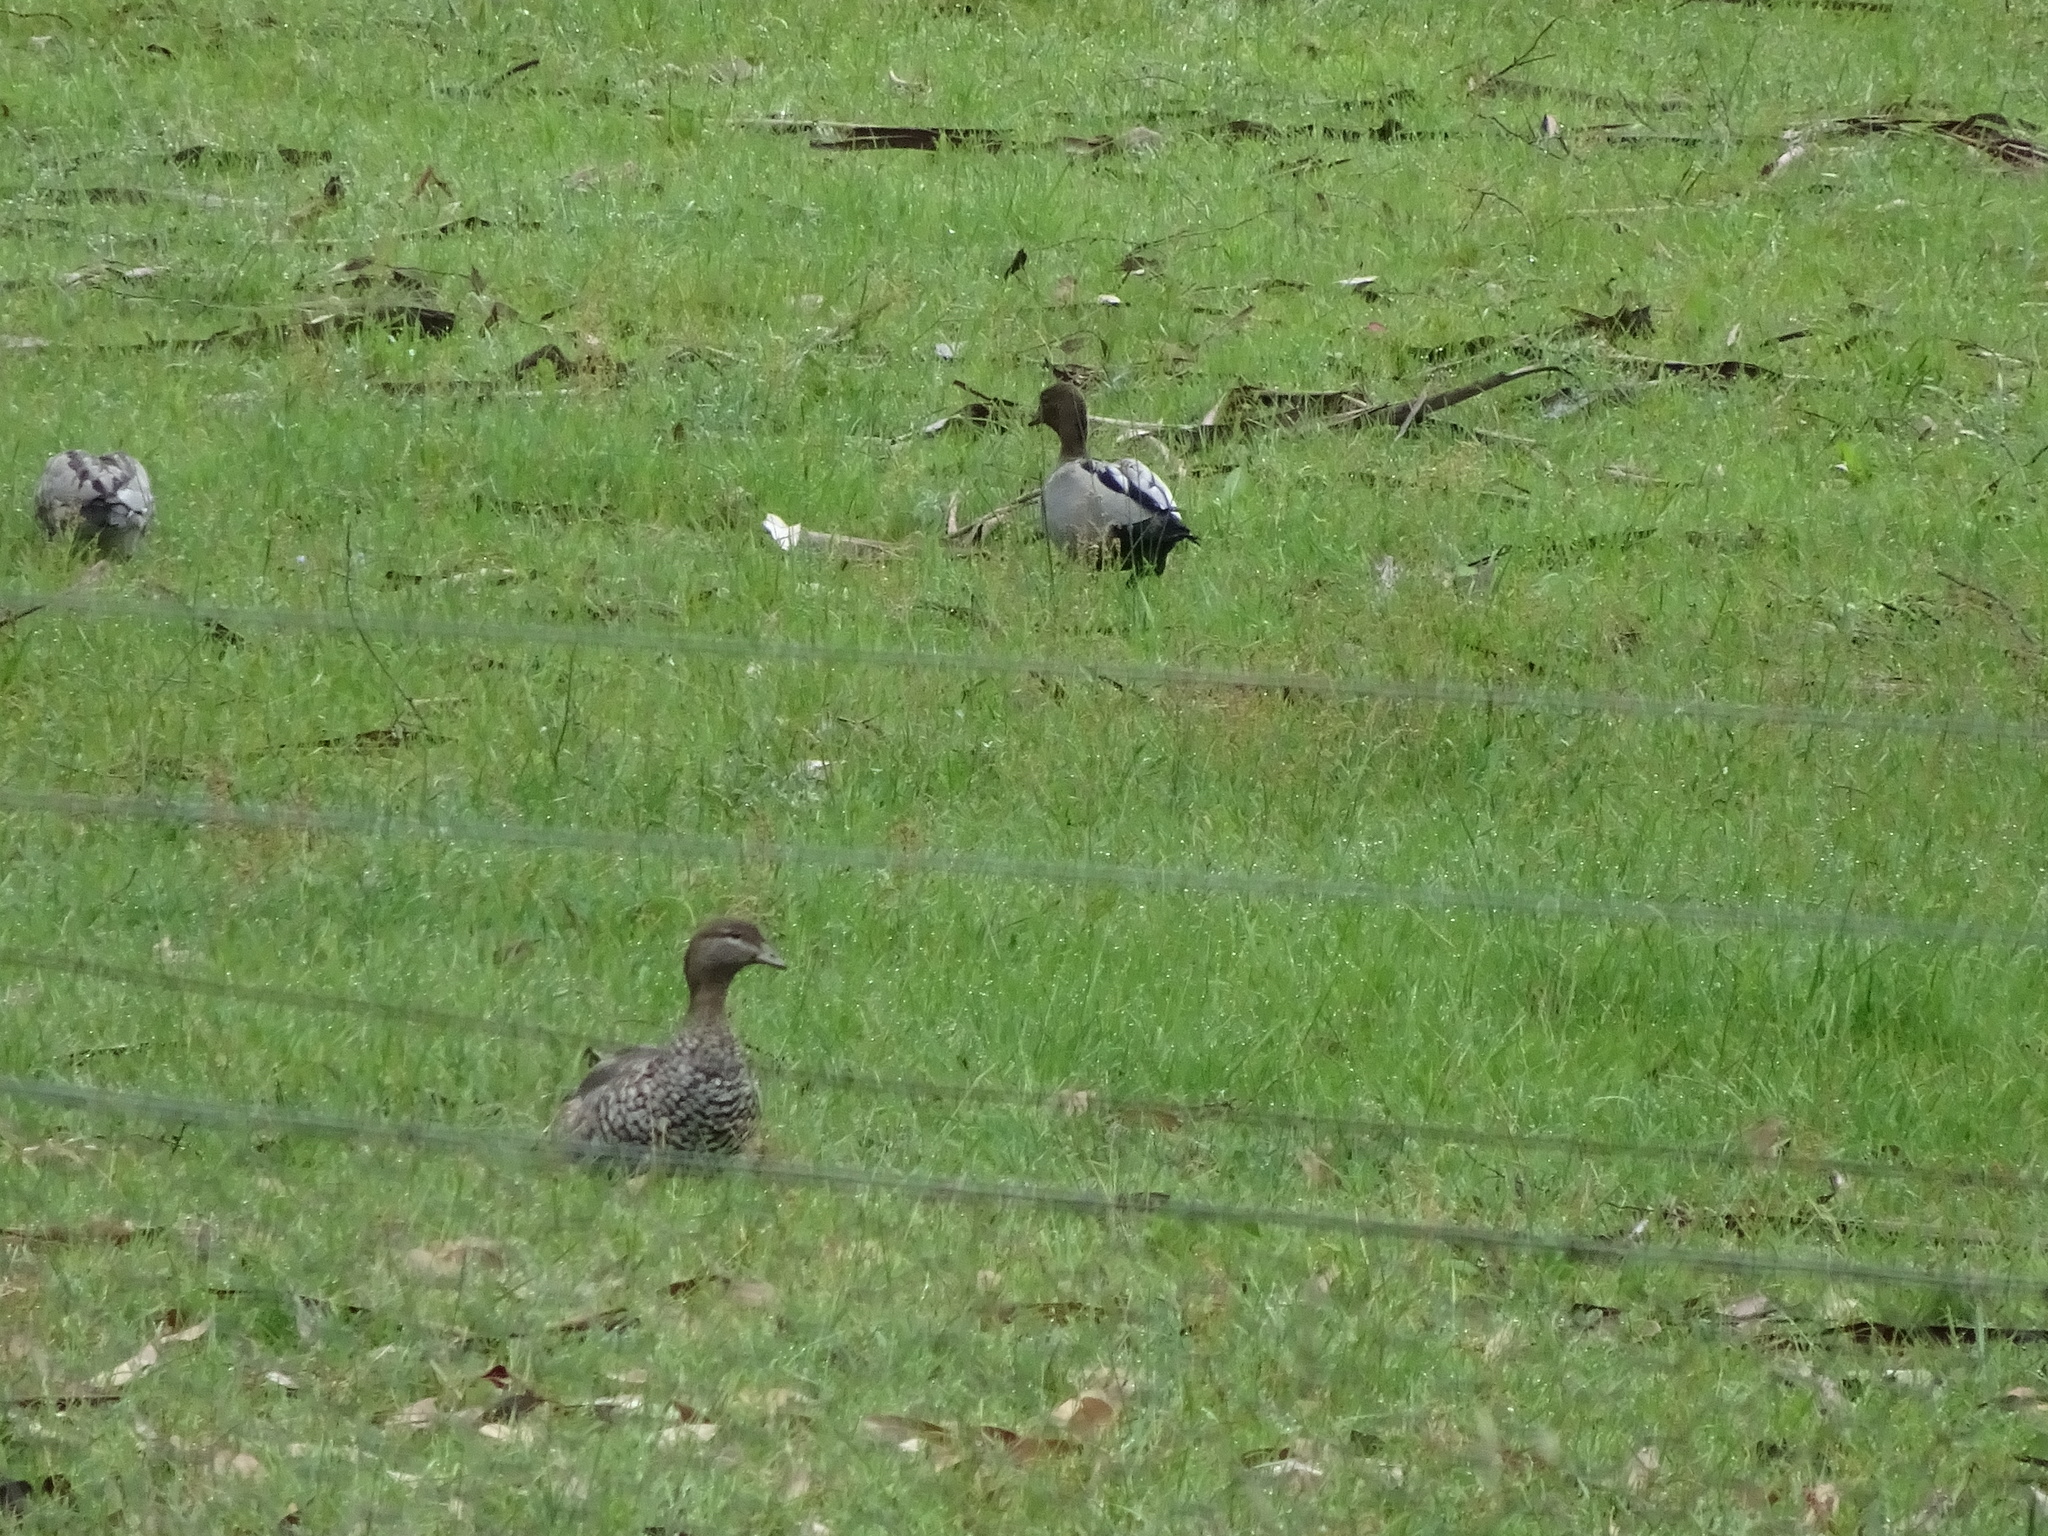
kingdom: Animalia
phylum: Chordata
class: Aves
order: Anseriformes
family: Anatidae
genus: Chenonetta
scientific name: Chenonetta jubata
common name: Maned duck
